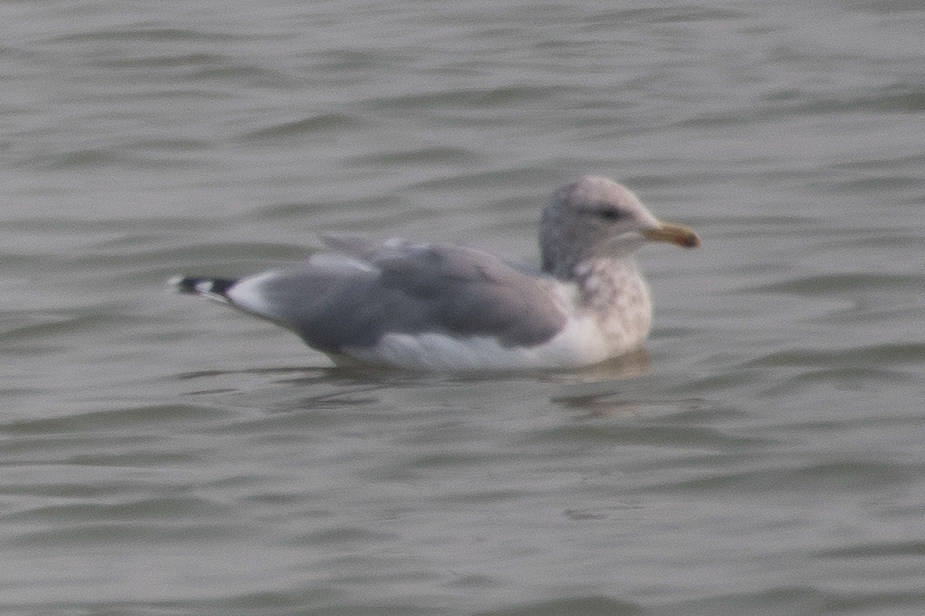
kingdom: Animalia
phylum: Chordata
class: Aves
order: Charadriiformes
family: Laridae
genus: Larus
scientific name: Larus californicus
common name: California gull
